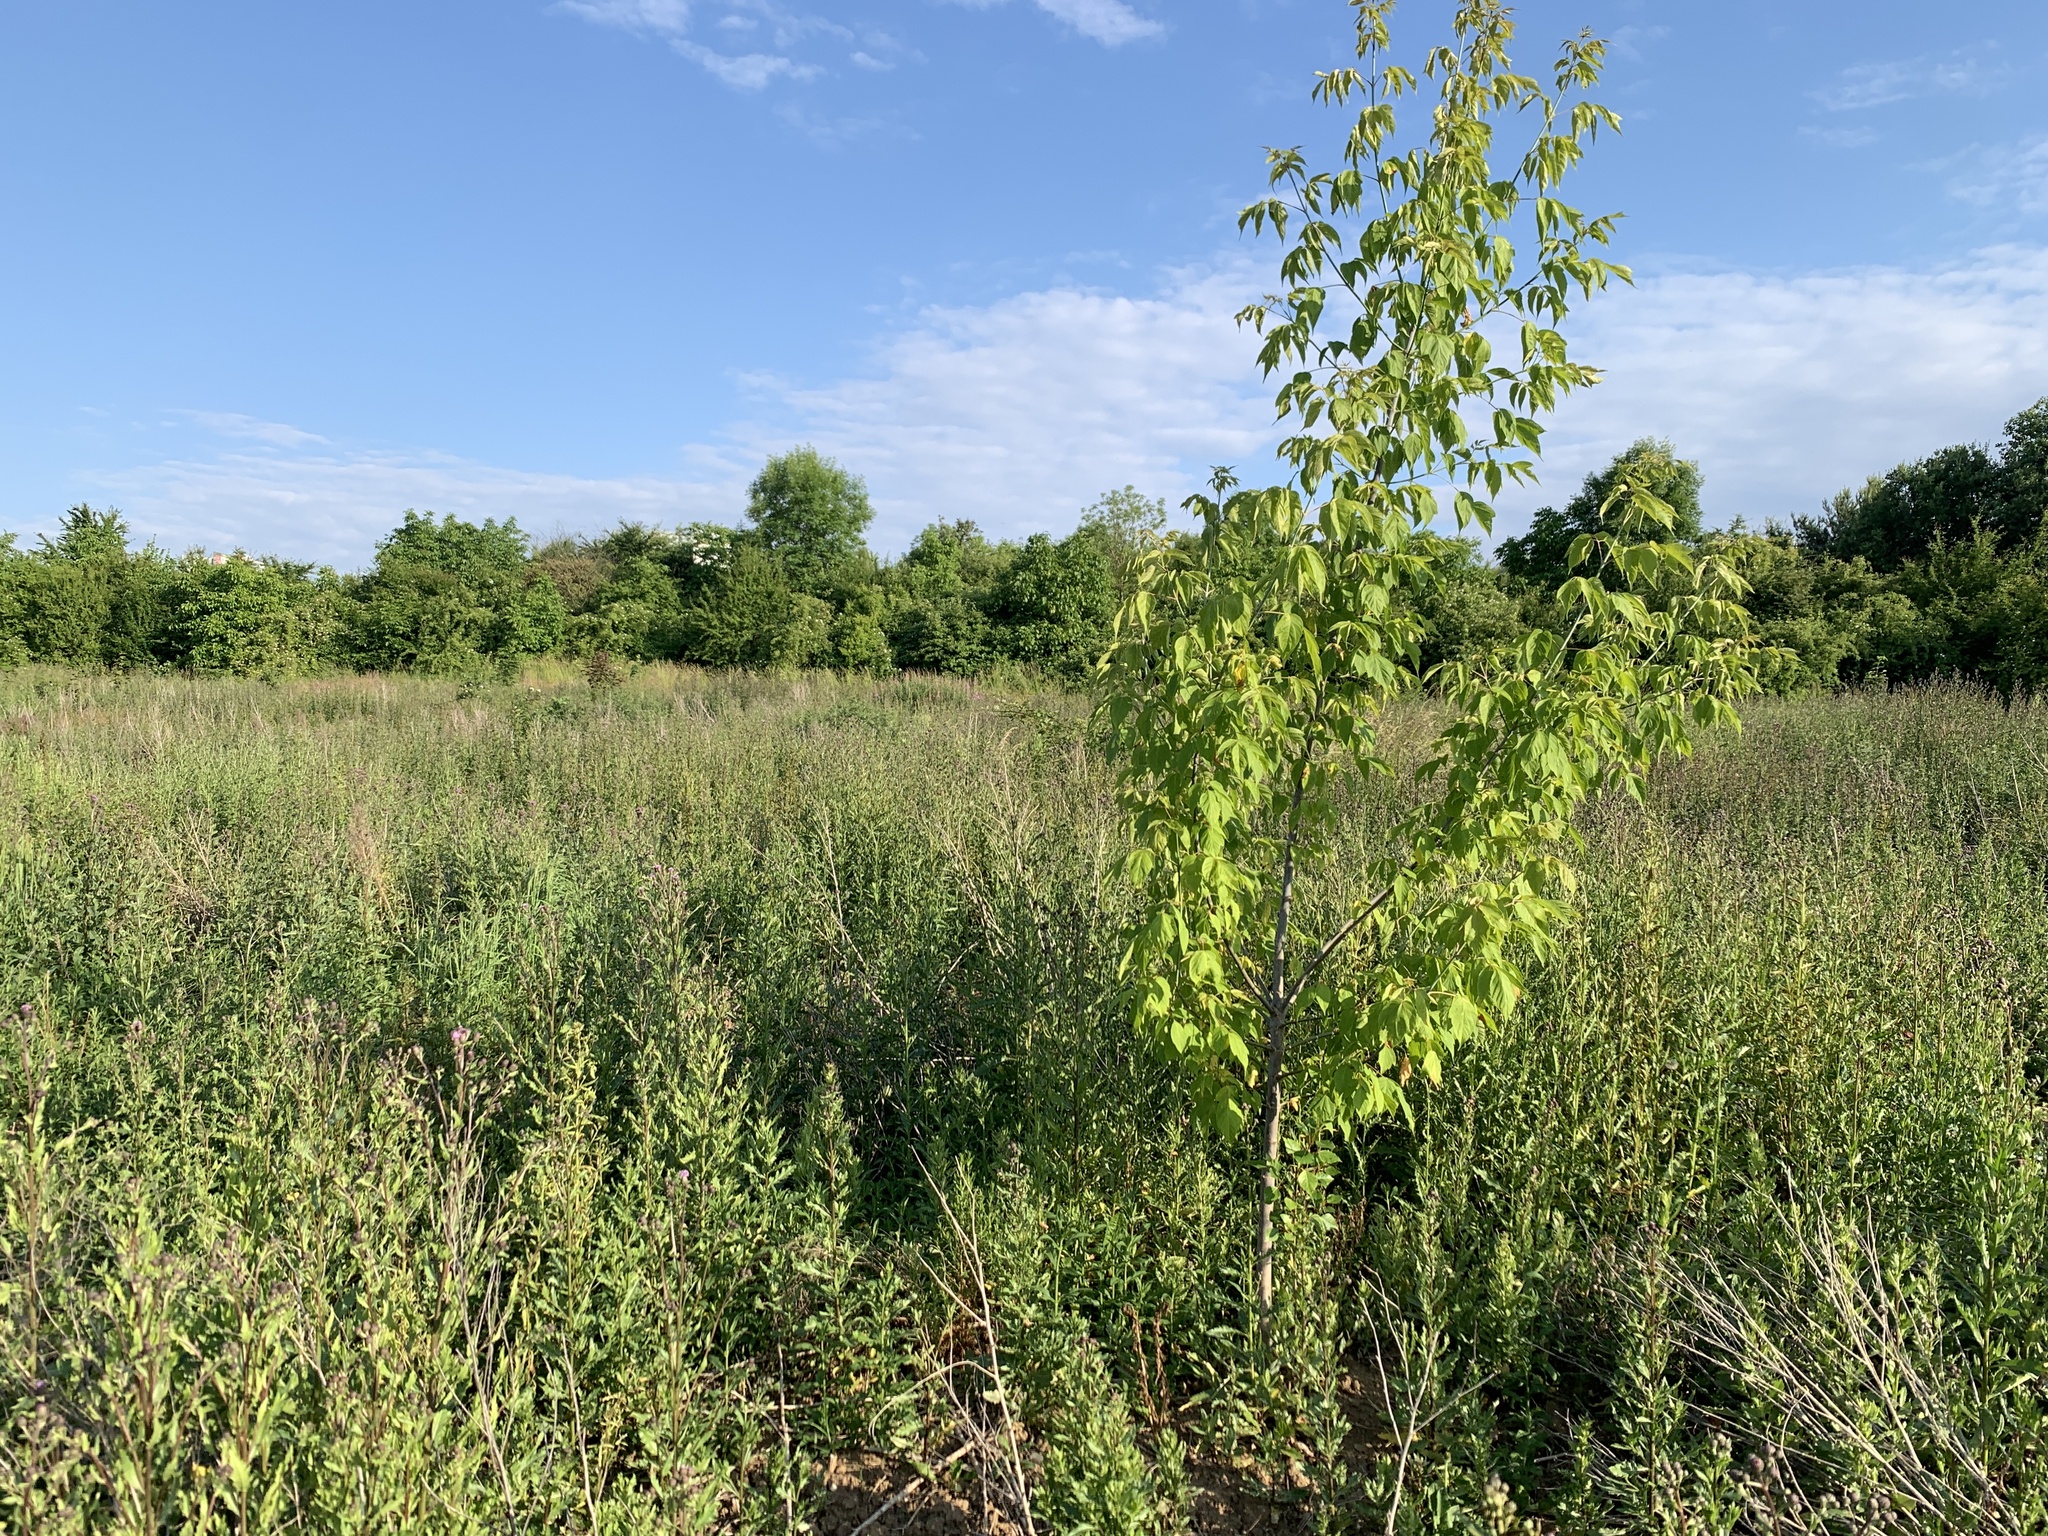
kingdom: Plantae
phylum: Tracheophyta
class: Magnoliopsida
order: Sapindales
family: Sapindaceae
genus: Acer
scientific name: Acer negundo
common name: Ashleaf maple
